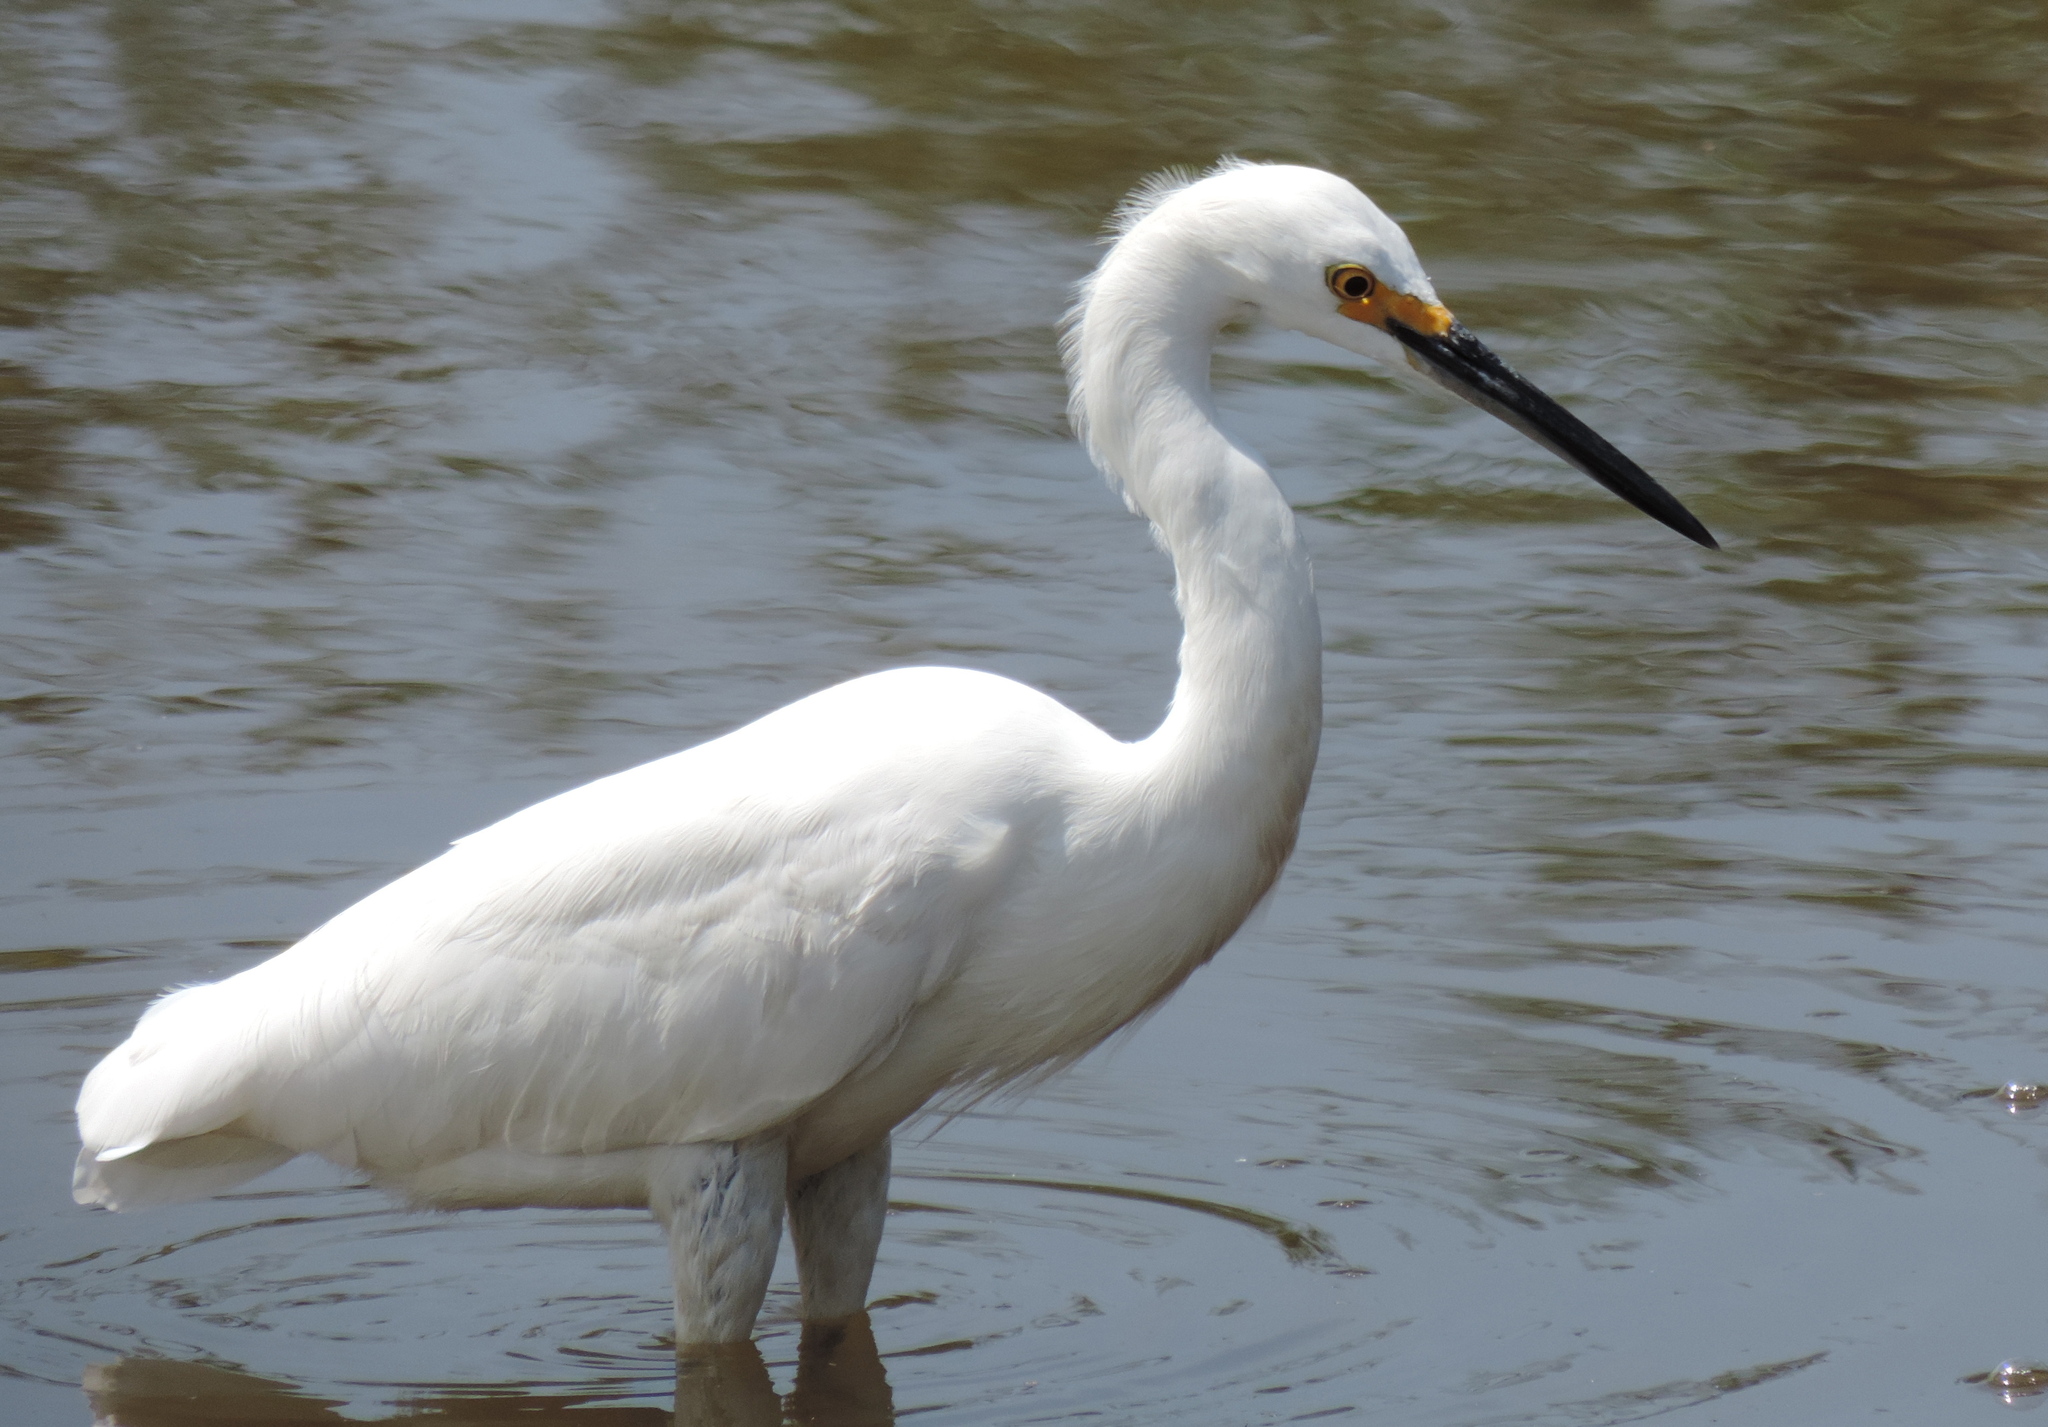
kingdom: Animalia
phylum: Chordata
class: Aves
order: Pelecaniformes
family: Ardeidae
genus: Egretta
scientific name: Egretta thula
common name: Snowy egret
